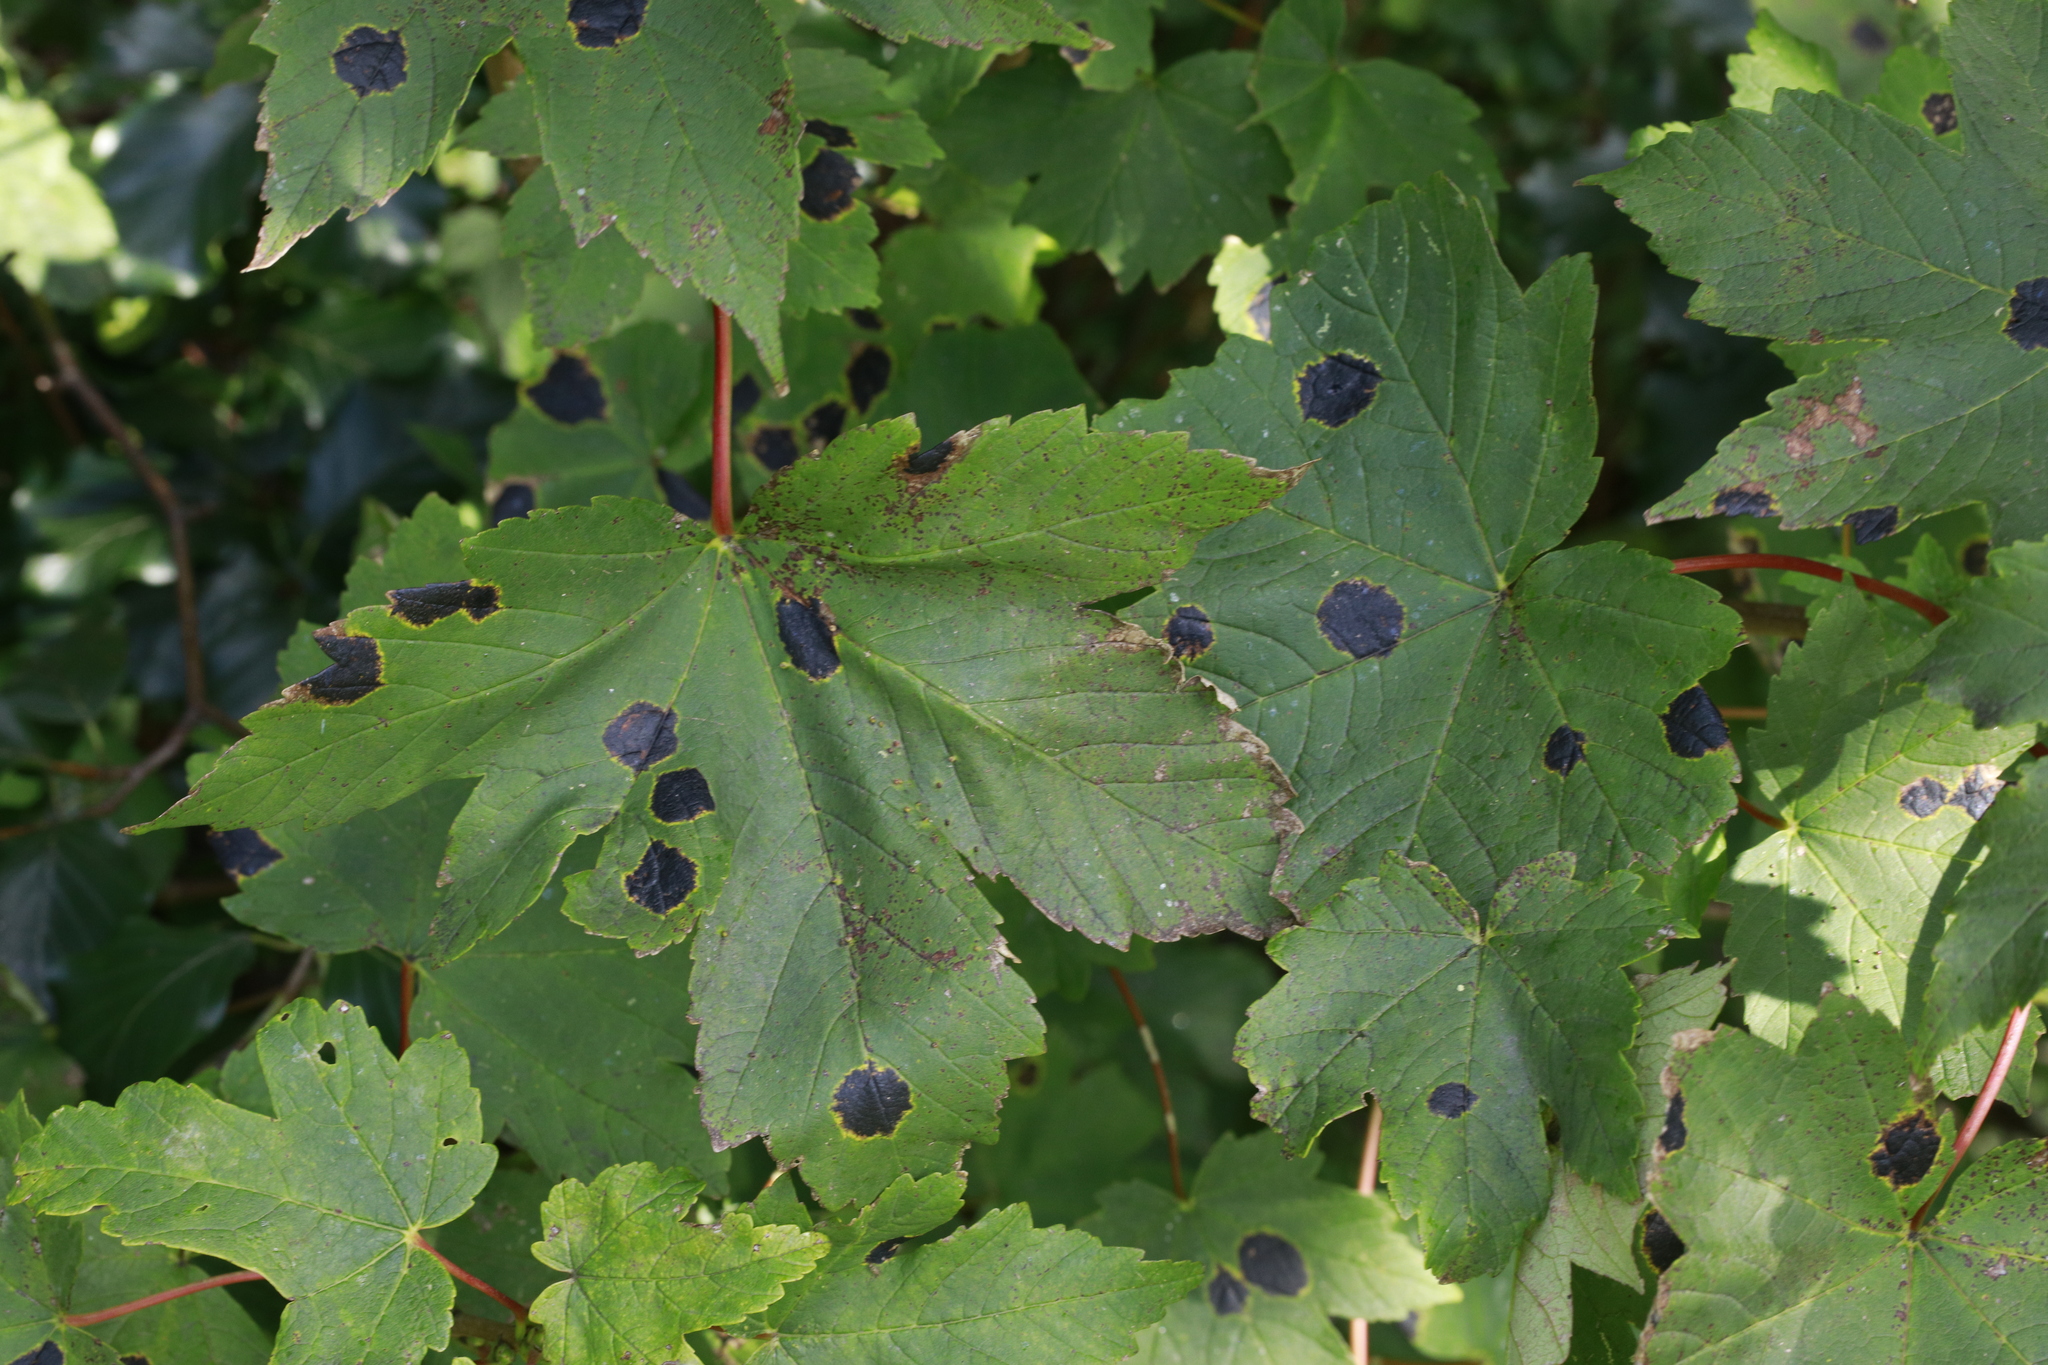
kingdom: Plantae
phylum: Tracheophyta
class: Magnoliopsida
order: Sapindales
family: Sapindaceae
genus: Acer
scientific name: Acer pseudoplatanus
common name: Sycamore
